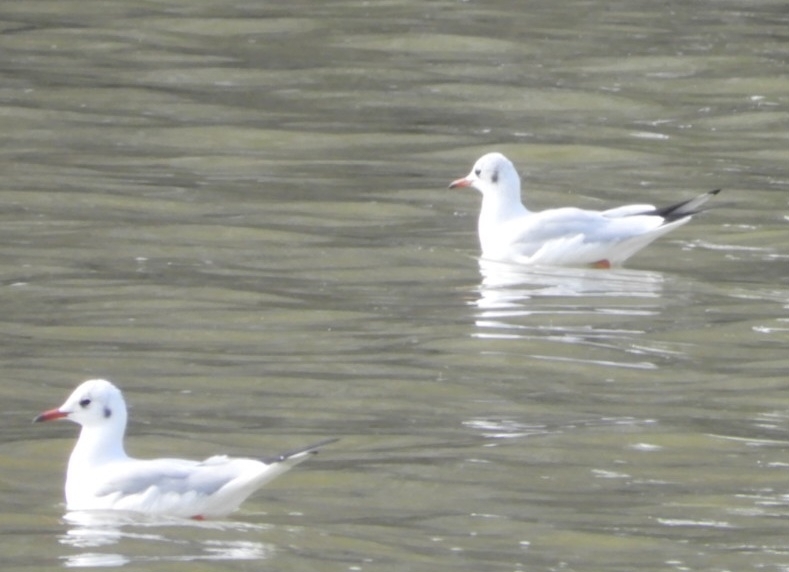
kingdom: Animalia
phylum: Chordata
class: Aves
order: Charadriiformes
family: Laridae
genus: Chroicocephalus
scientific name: Chroicocephalus ridibundus
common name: Black-headed gull
